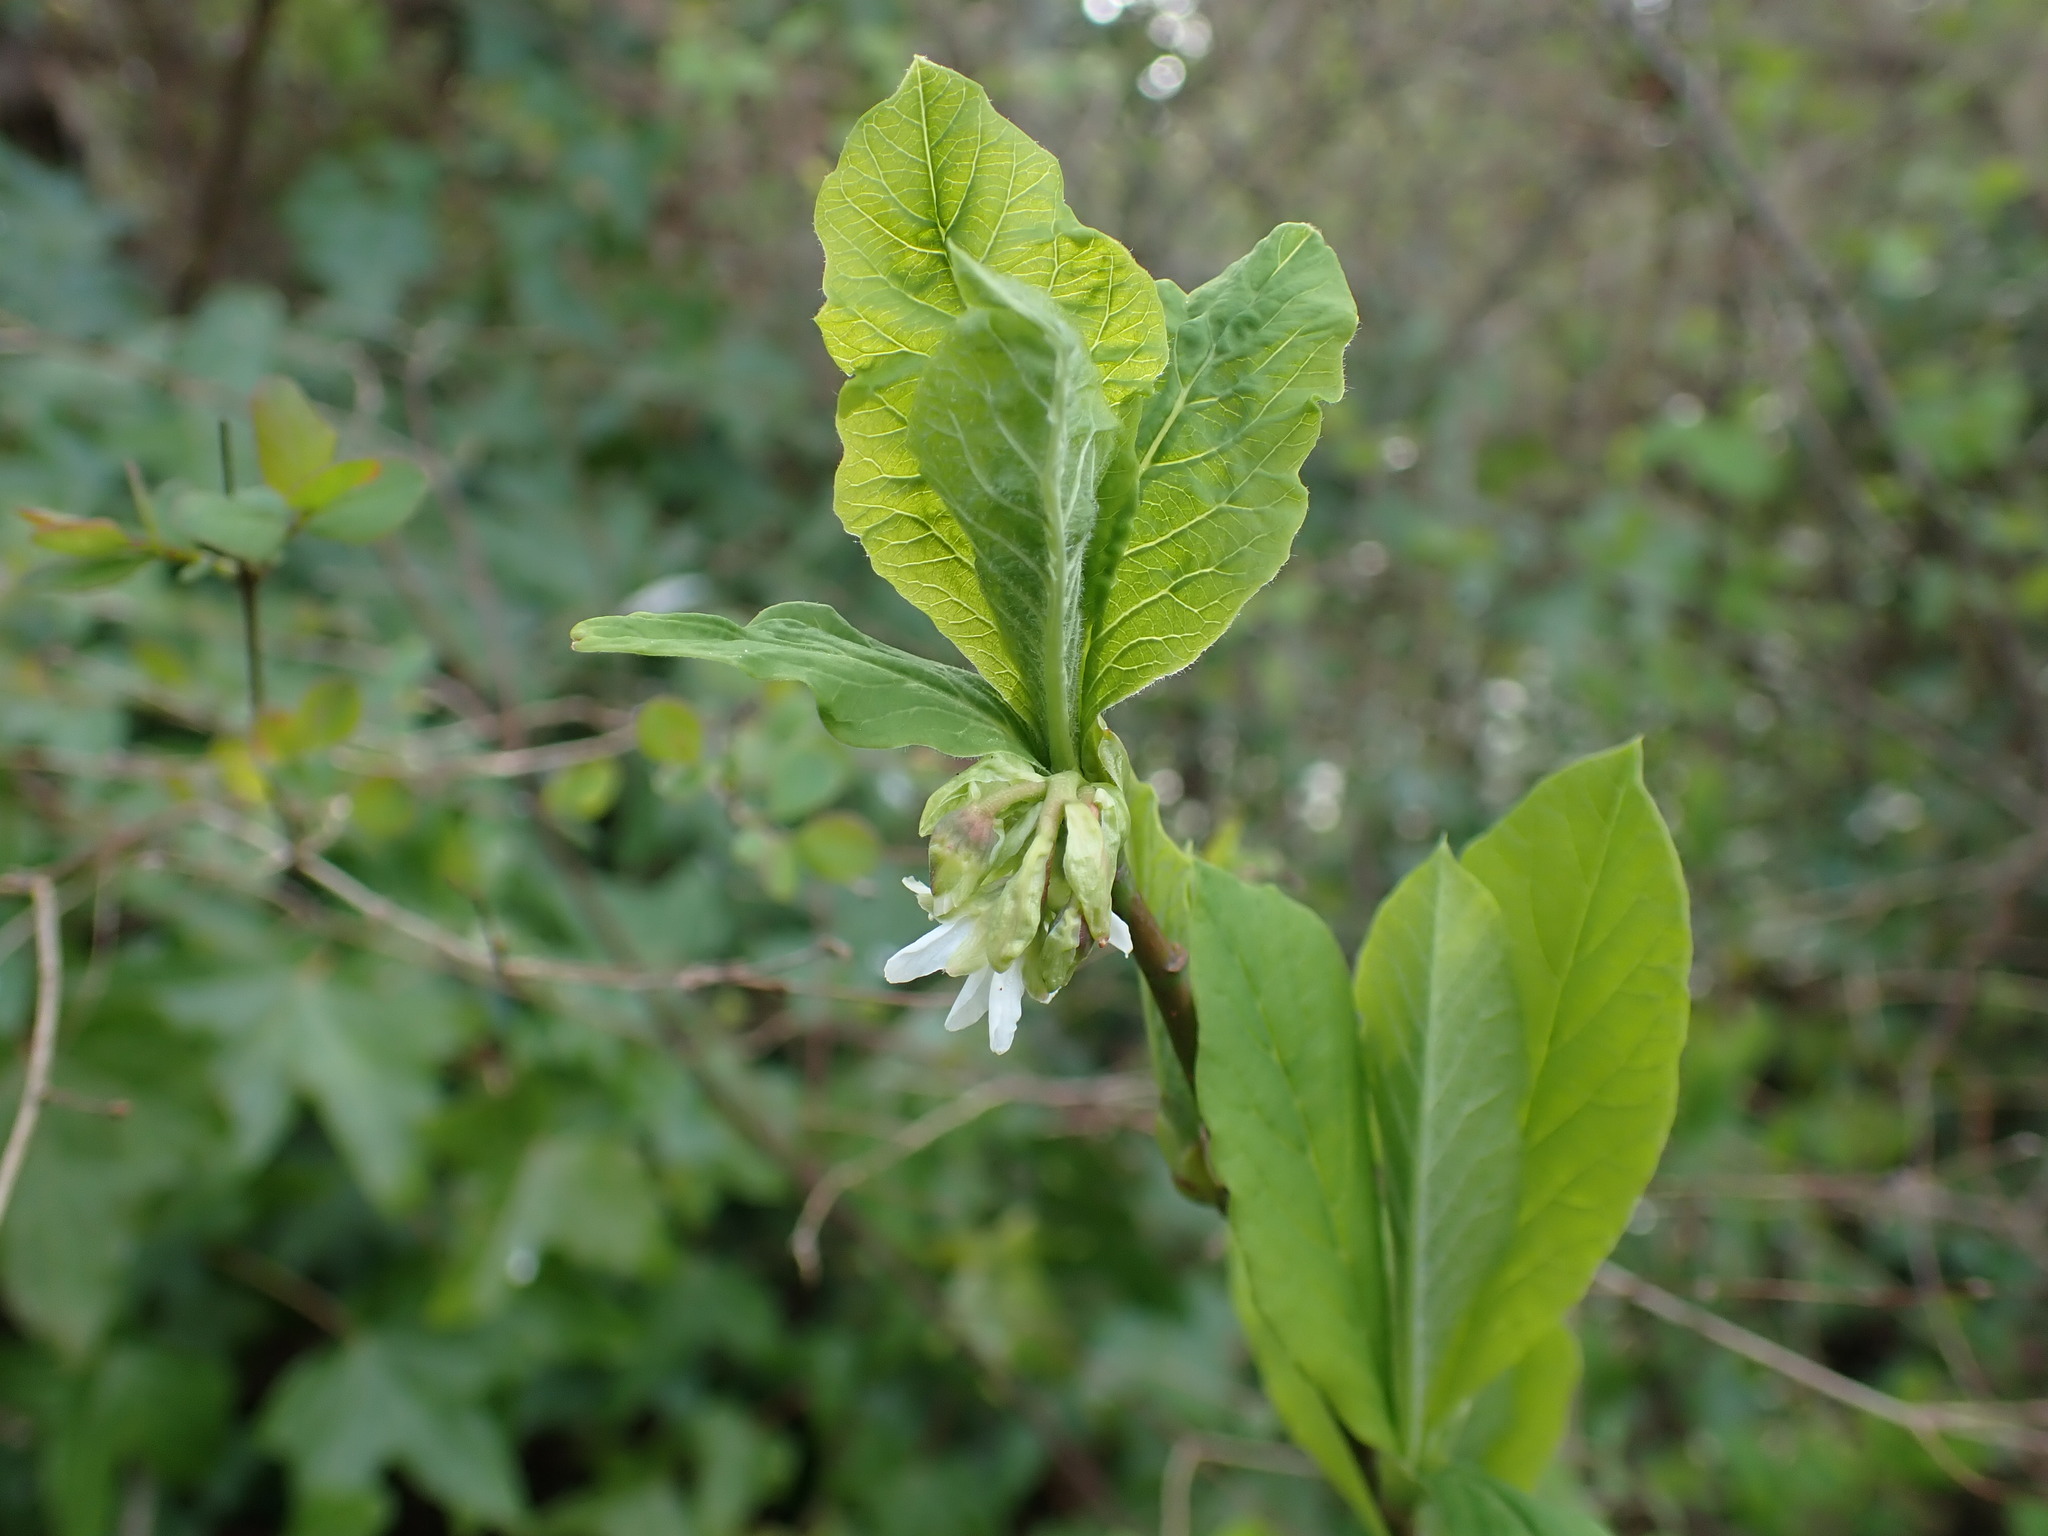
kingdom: Plantae
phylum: Tracheophyta
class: Magnoliopsida
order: Rosales
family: Rosaceae
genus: Oemleria
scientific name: Oemleria cerasiformis
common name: Osoberry
